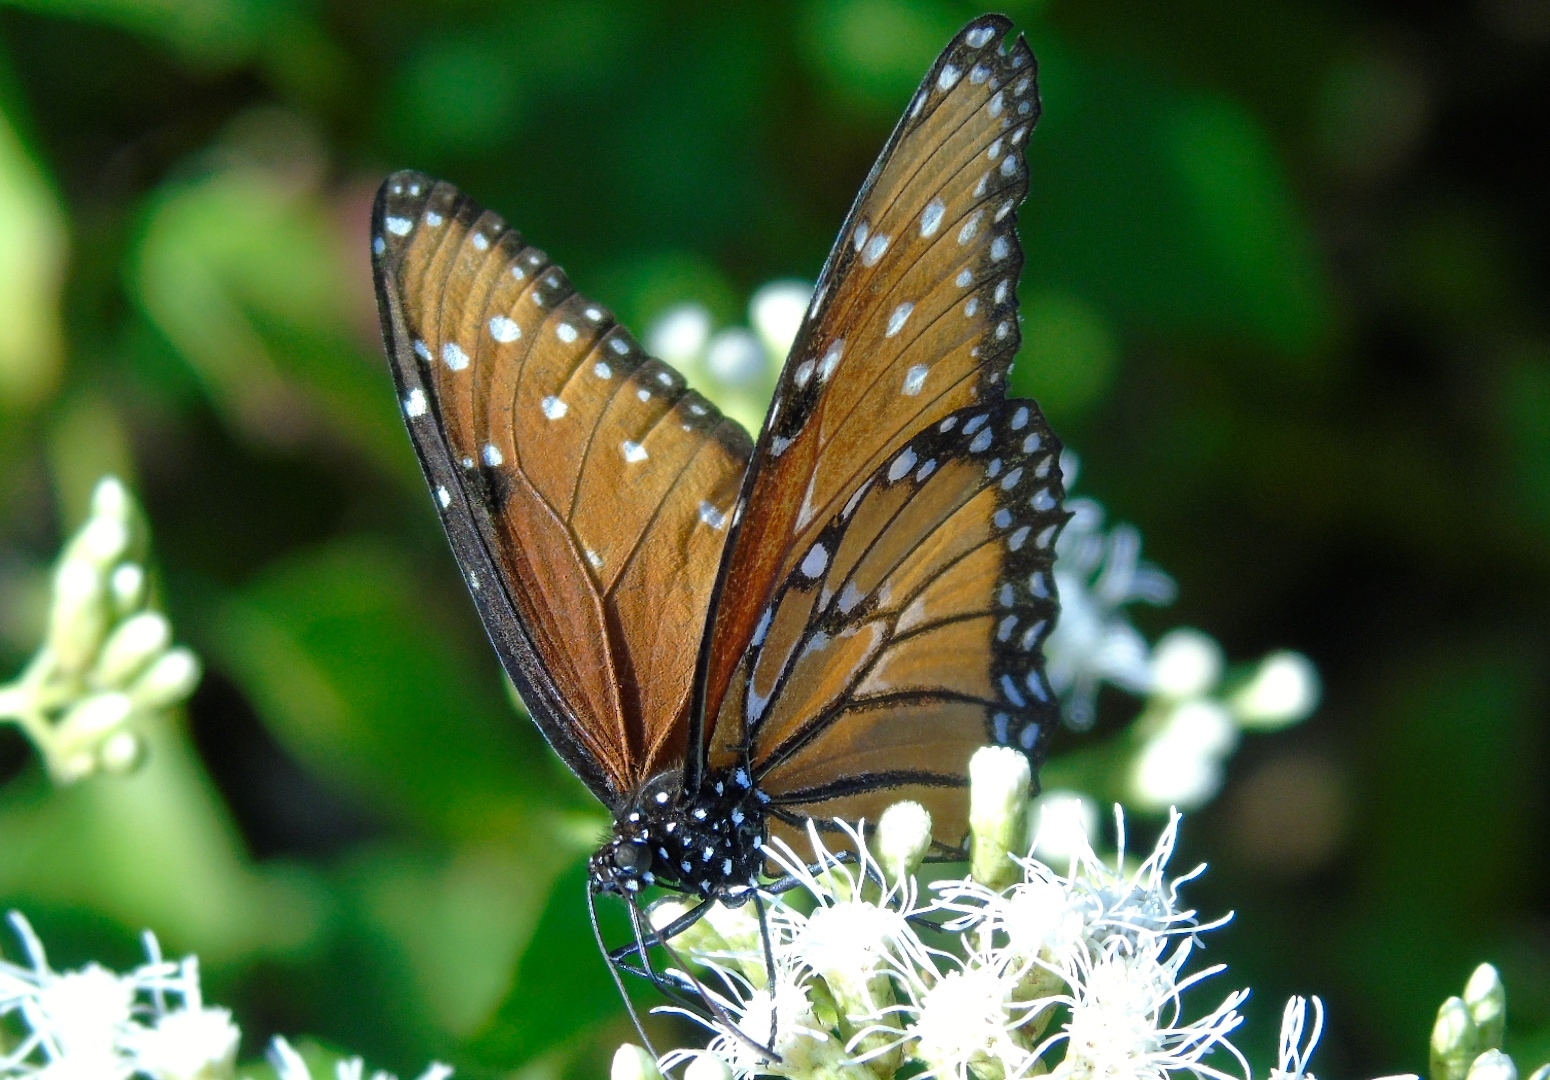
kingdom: Animalia
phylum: Arthropoda
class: Insecta
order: Lepidoptera
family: Nymphalidae
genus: Danaus
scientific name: Danaus gilippus
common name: Queen
